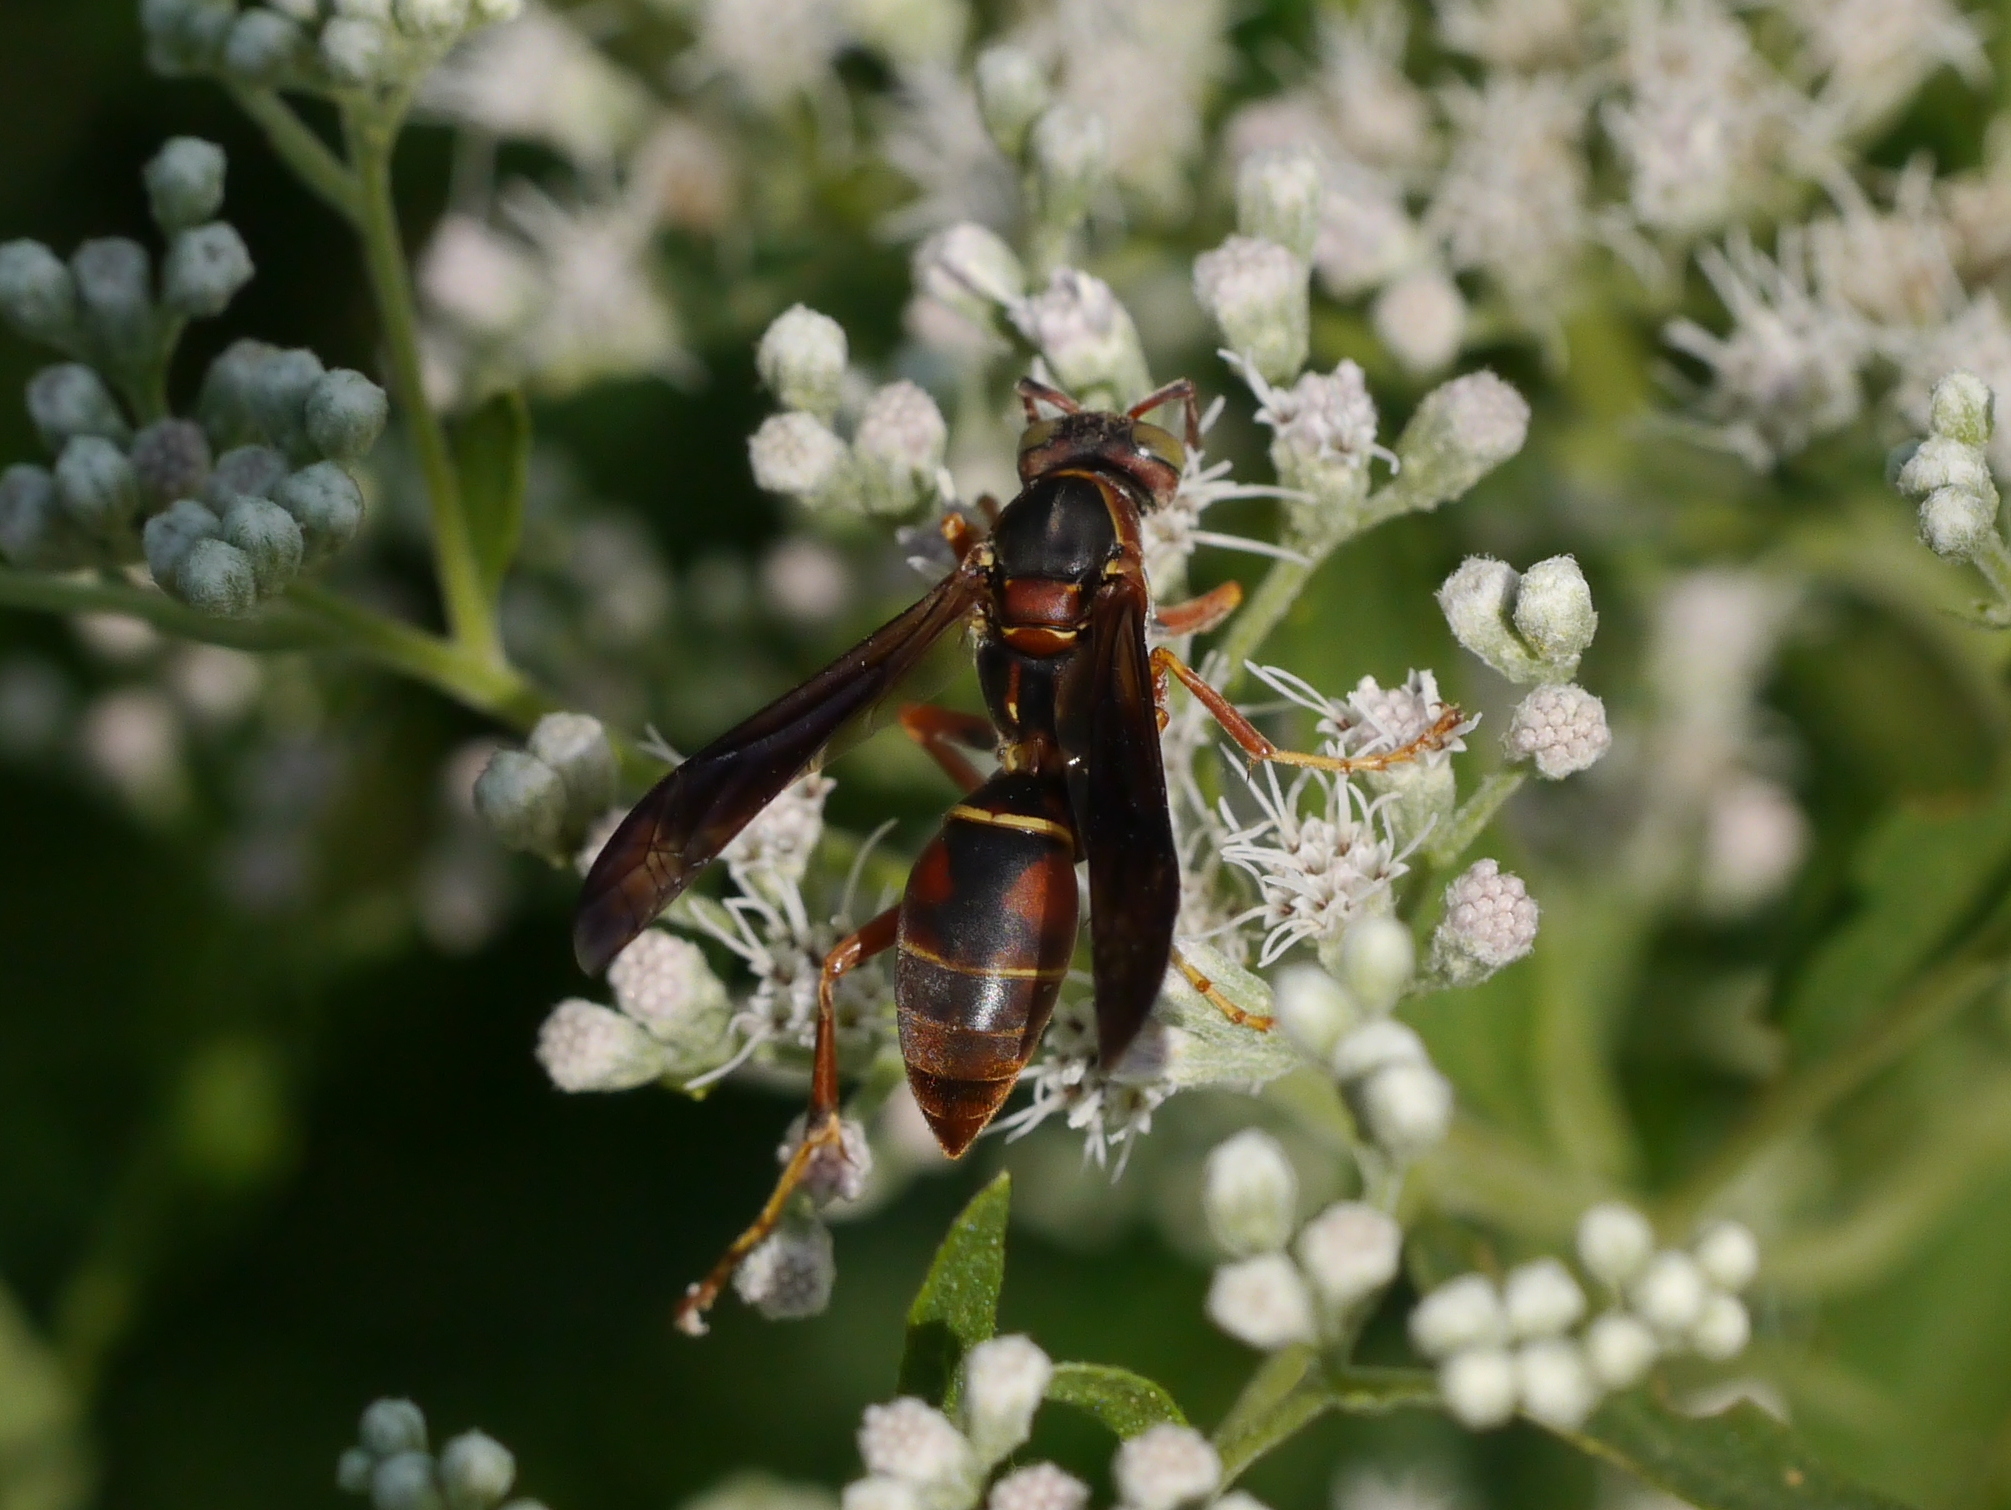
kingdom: Animalia
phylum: Arthropoda
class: Insecta
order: Hymenoptera
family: Eumenidae
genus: Polistes
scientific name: Polistes fuscatus
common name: Dark paper wasp
